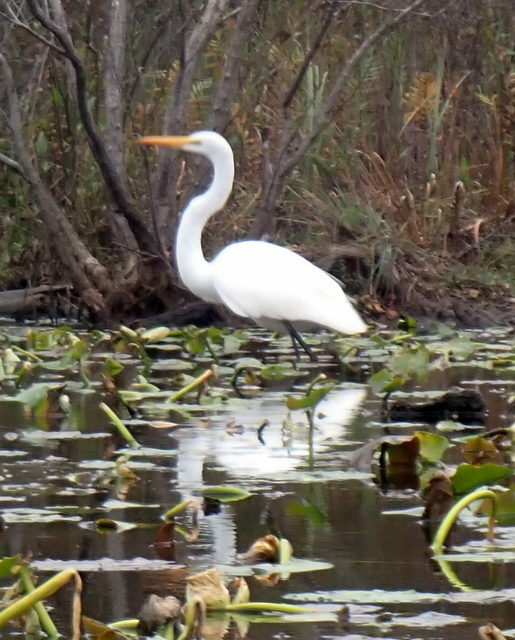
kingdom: Animalia
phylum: Chordata
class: Aves
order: Pelecaniformes
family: Ardeidae
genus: Ardea
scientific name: Ardea alba
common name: Great egret
